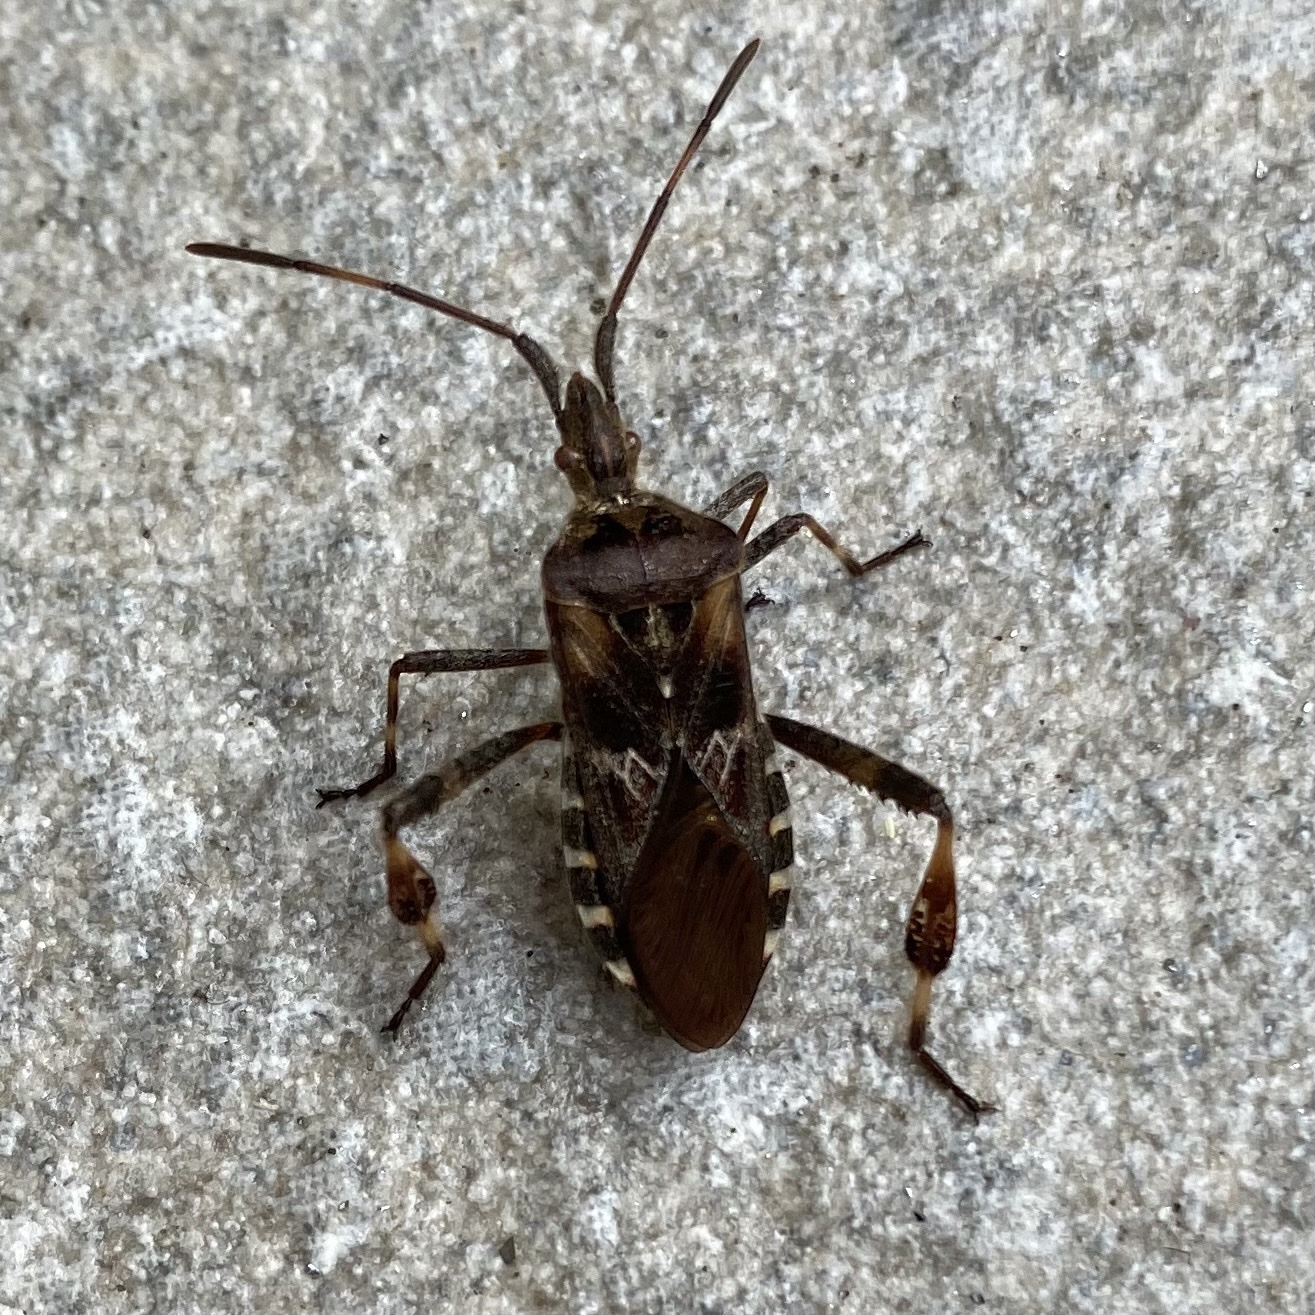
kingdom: Animalia
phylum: Arthropoda
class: Insecta
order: Hemiptera
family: Coreidae
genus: Leptoglossus
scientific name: Leptoglossus occidentalis
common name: Western conifer-seed bug
